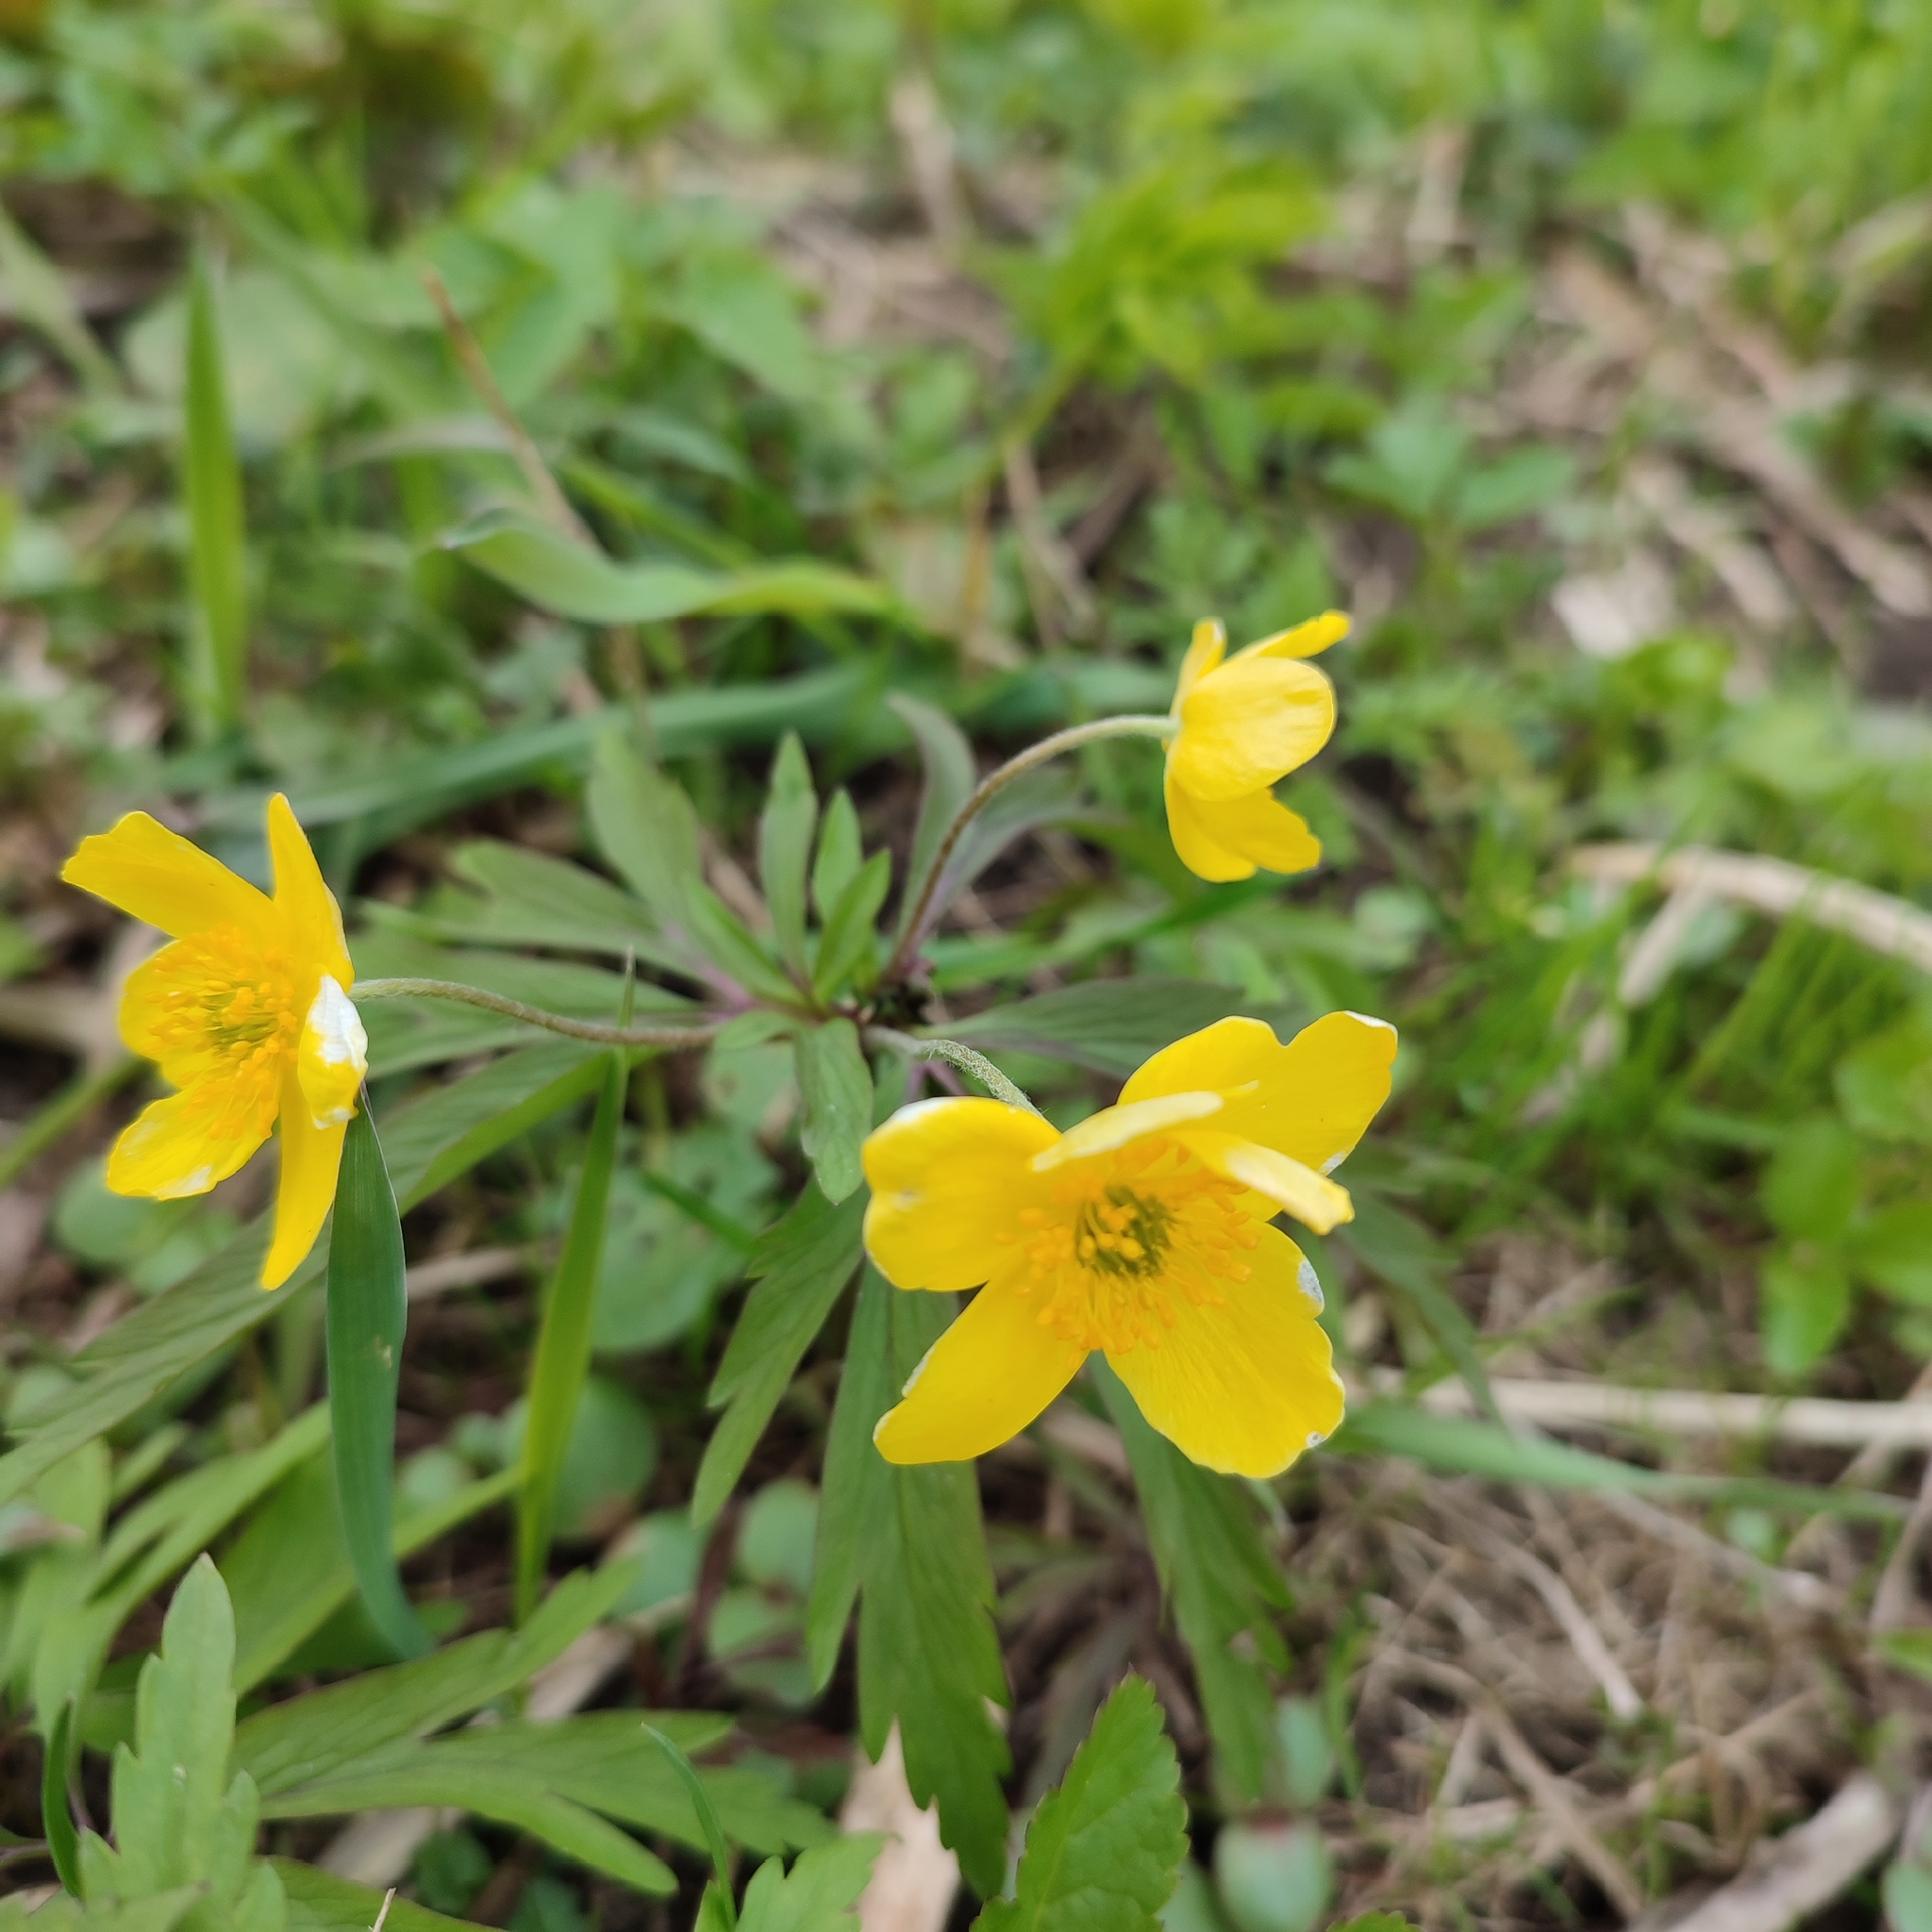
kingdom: Plantae
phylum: Tracheophyta
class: Magnoliopsida
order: Ranunculales
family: Ranunculaceae
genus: Anemone
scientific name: Anemone ranunculoides
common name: Yellow anemone
